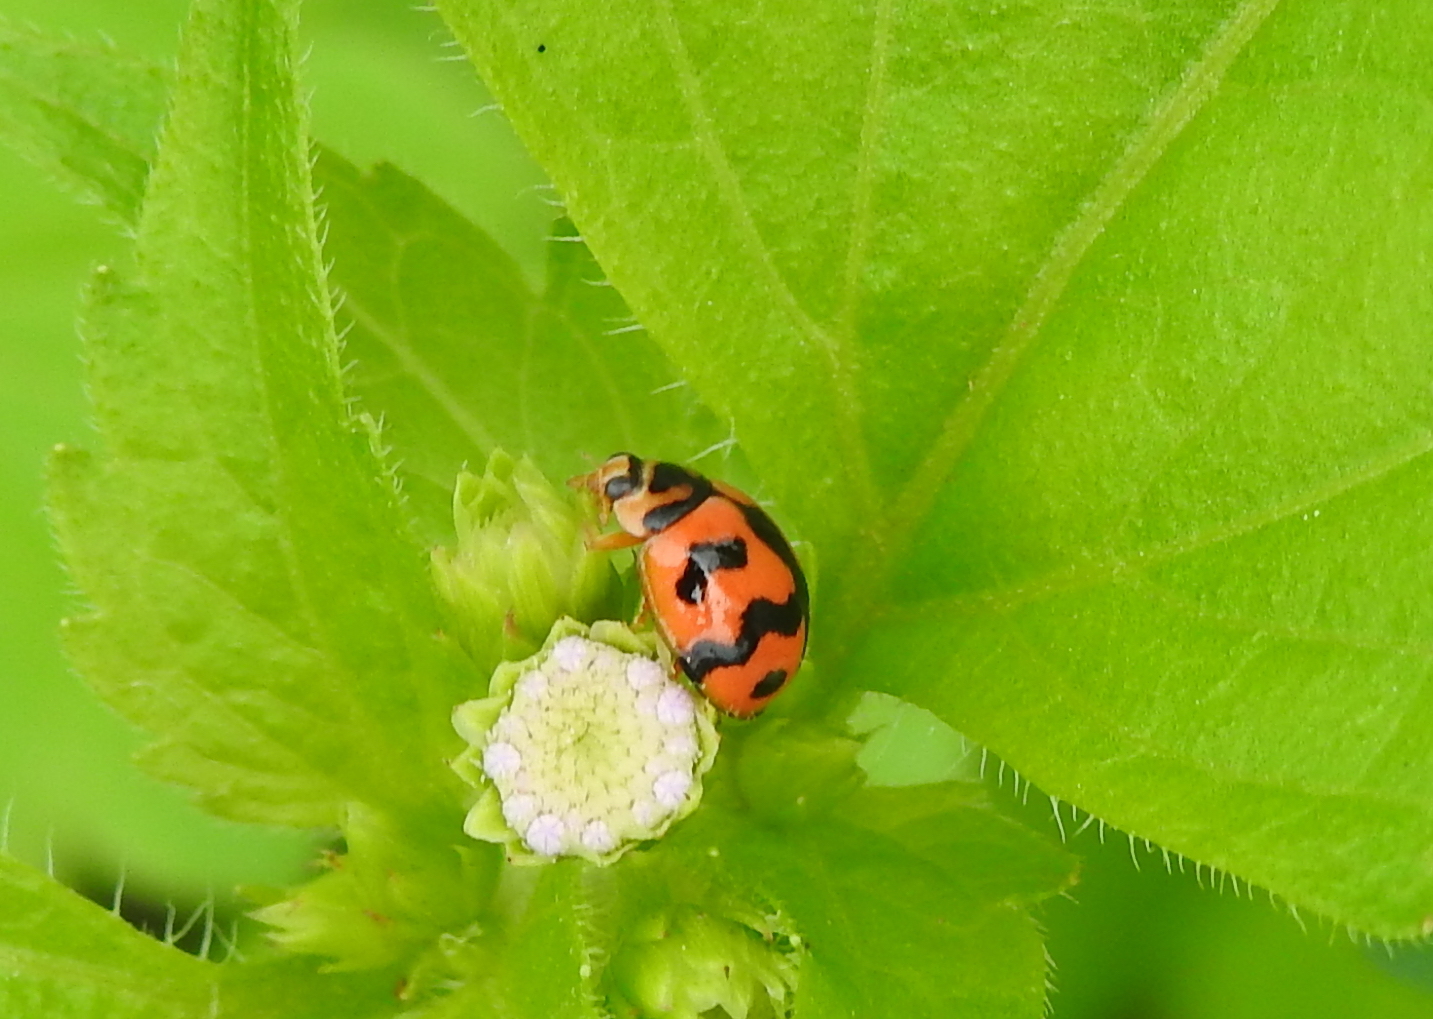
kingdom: Animalia
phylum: Arthropoda
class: Insecta
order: Coleoptera
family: Coccinellidae
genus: Cheilomenes
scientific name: Cheilomenes sexmaculata
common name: Ladybird beetle
